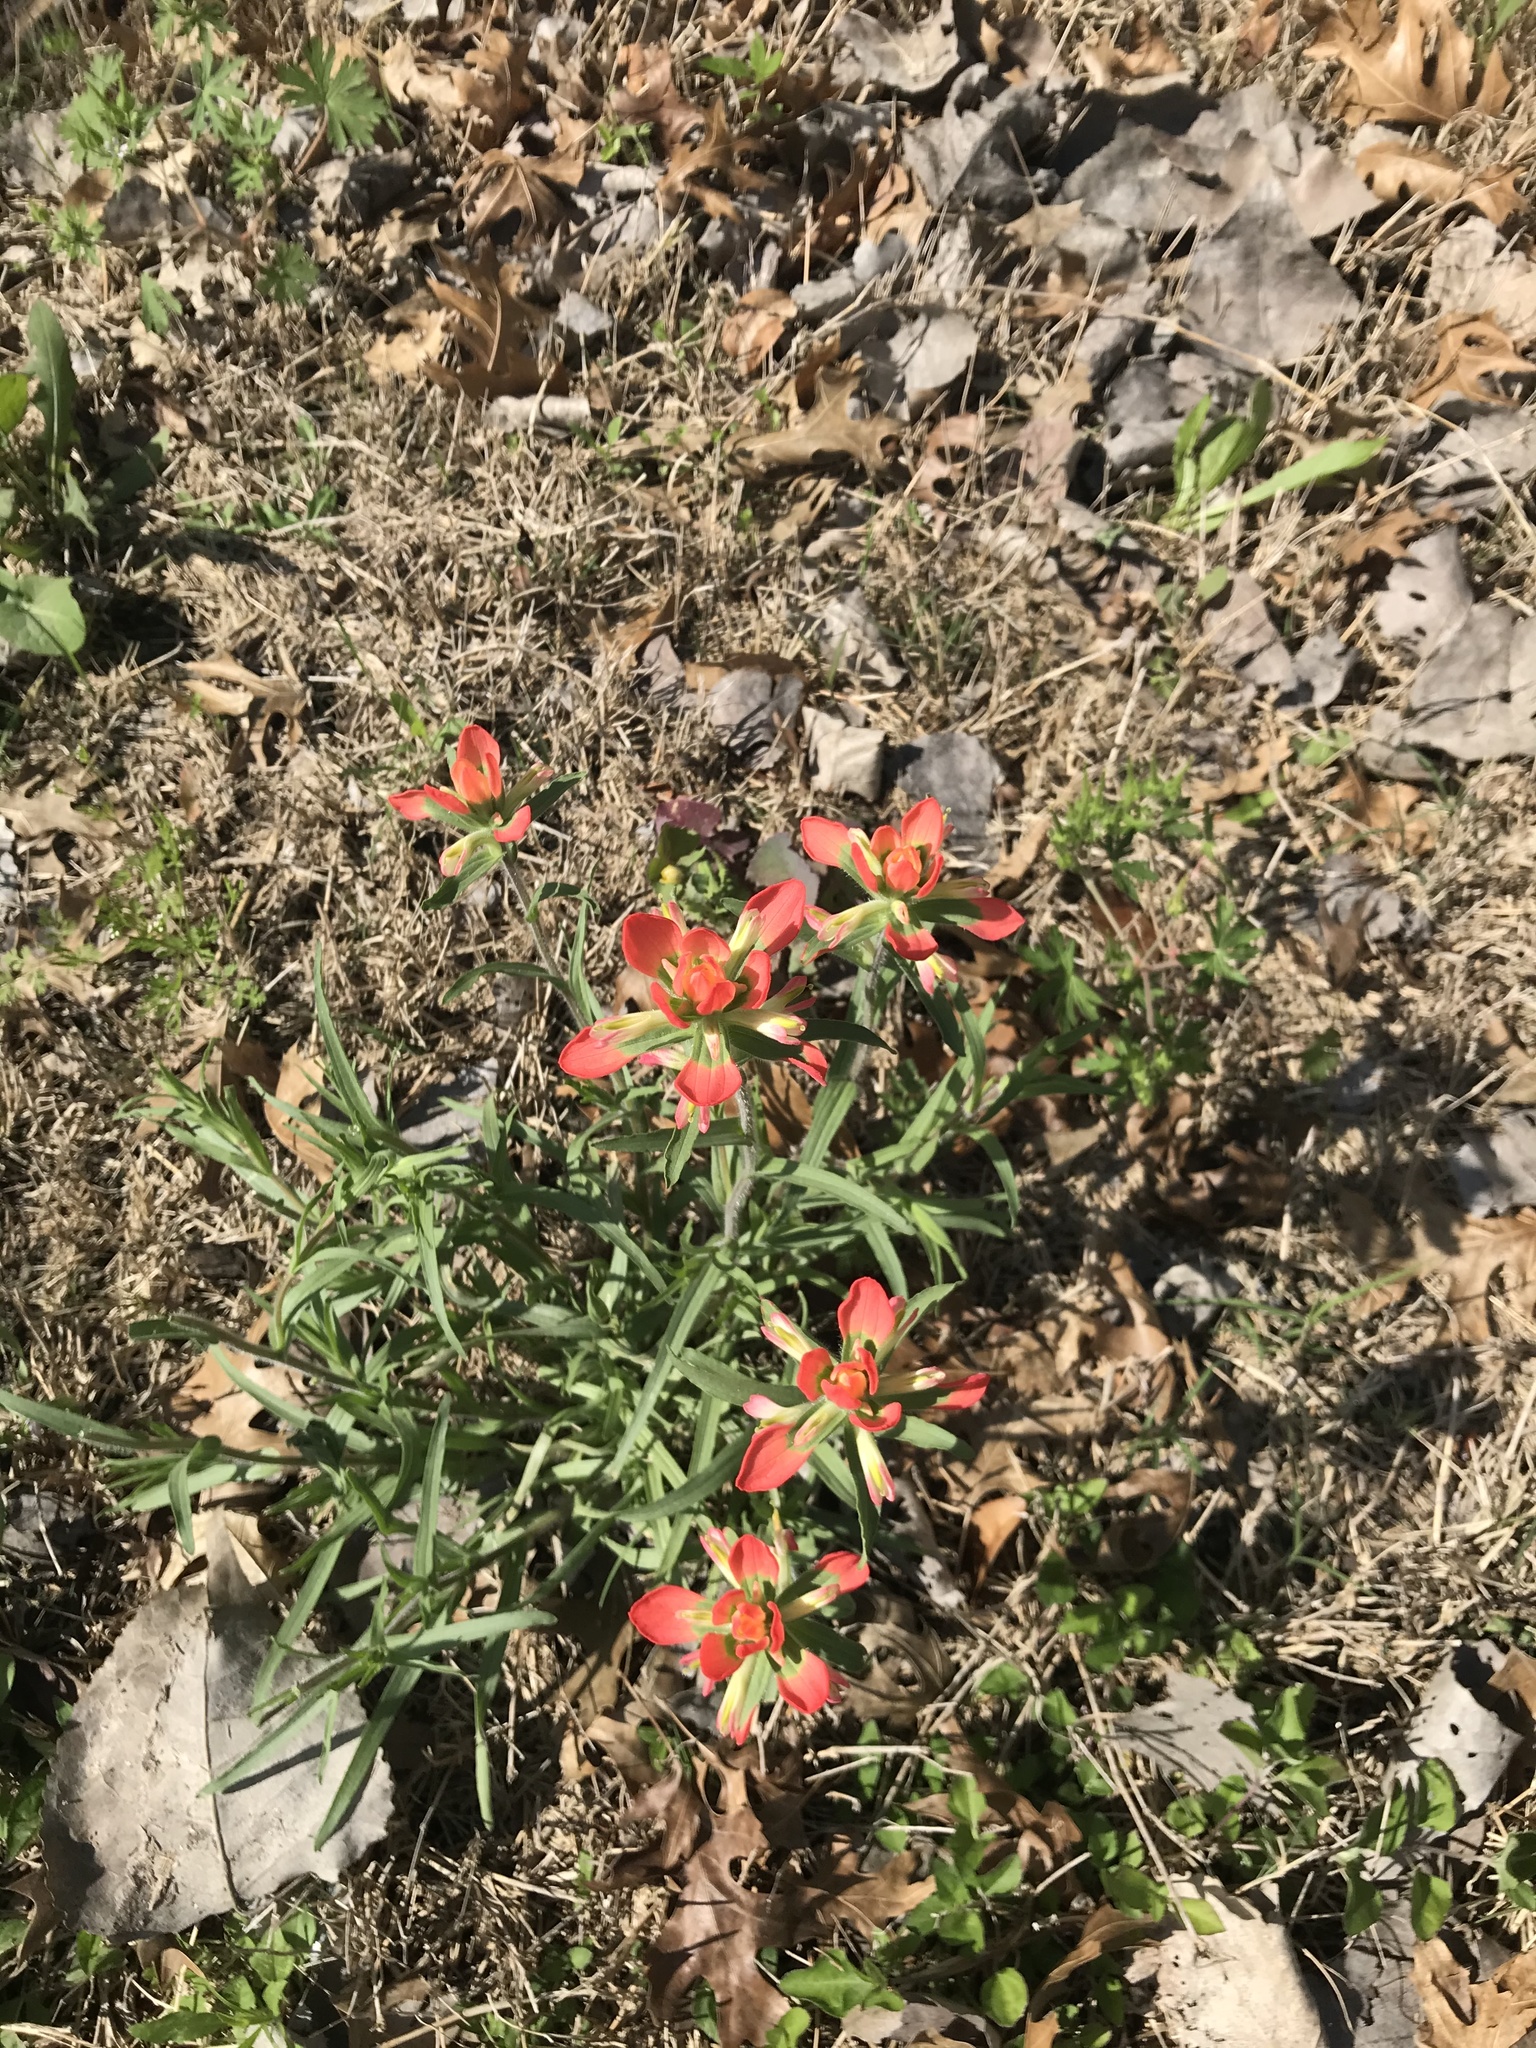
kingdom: Plantae
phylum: Tracheophyta
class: Magnoliopsida
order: Lamiales
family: Orobanchaceae
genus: Castilleja
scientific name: Castilleja indivisa
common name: Texas paintbrush
